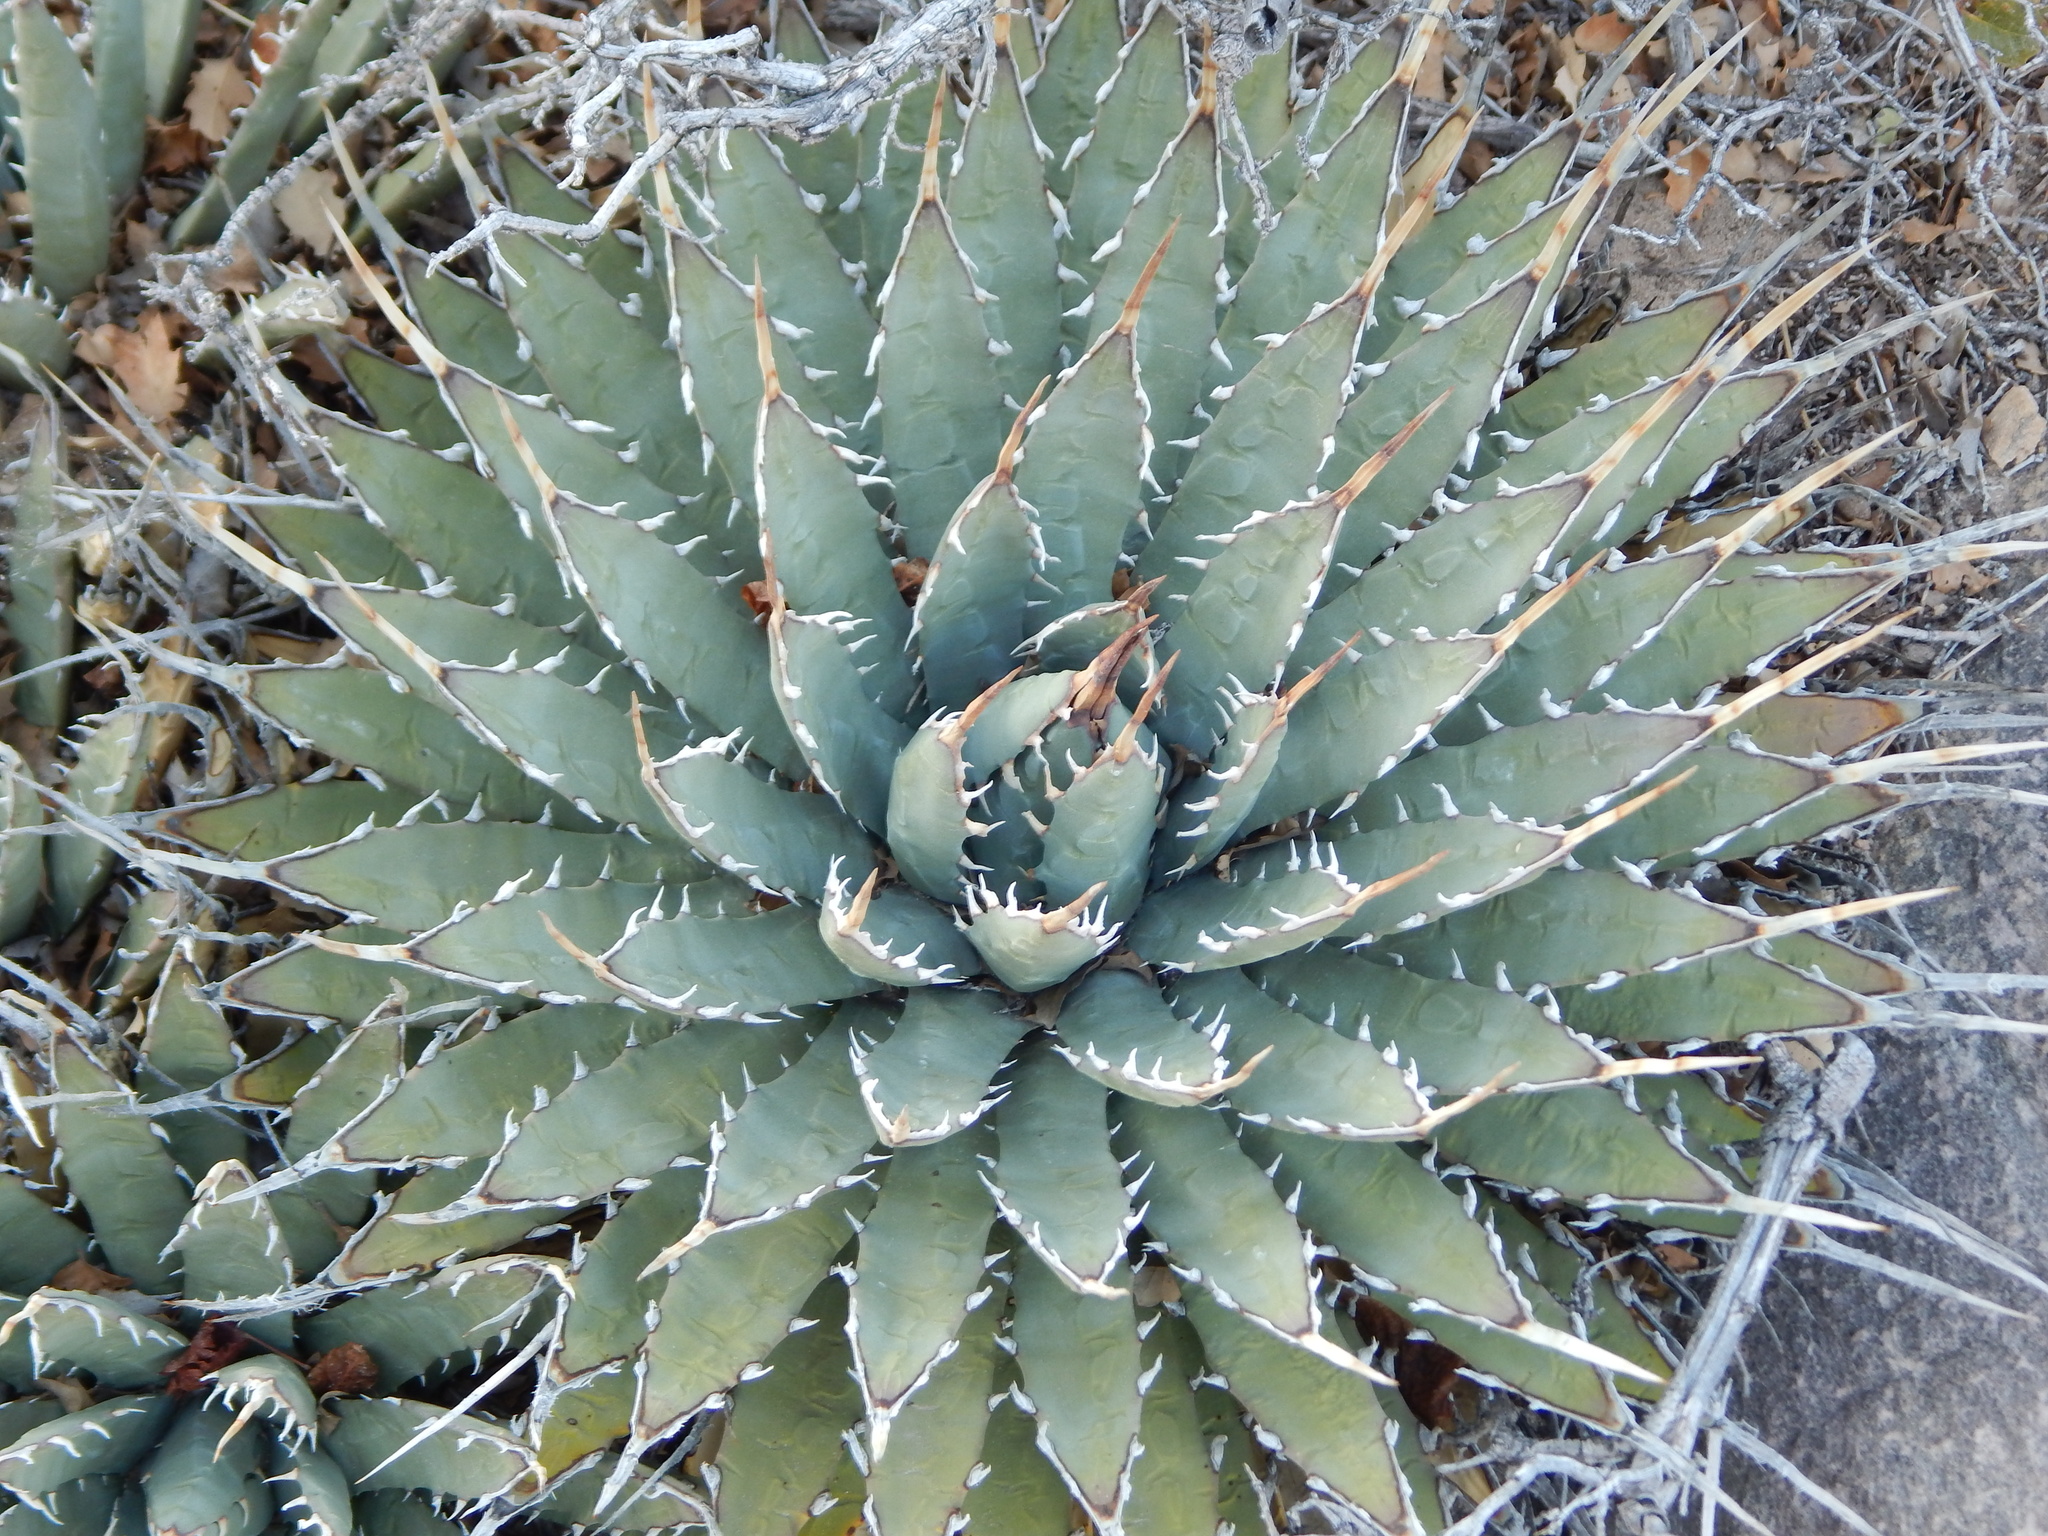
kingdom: Plantae
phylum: Tracheophyta
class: Liliopsida
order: Asparagales
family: Asparagaceae
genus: Agave
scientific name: Agave utahensis
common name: Utah agave
